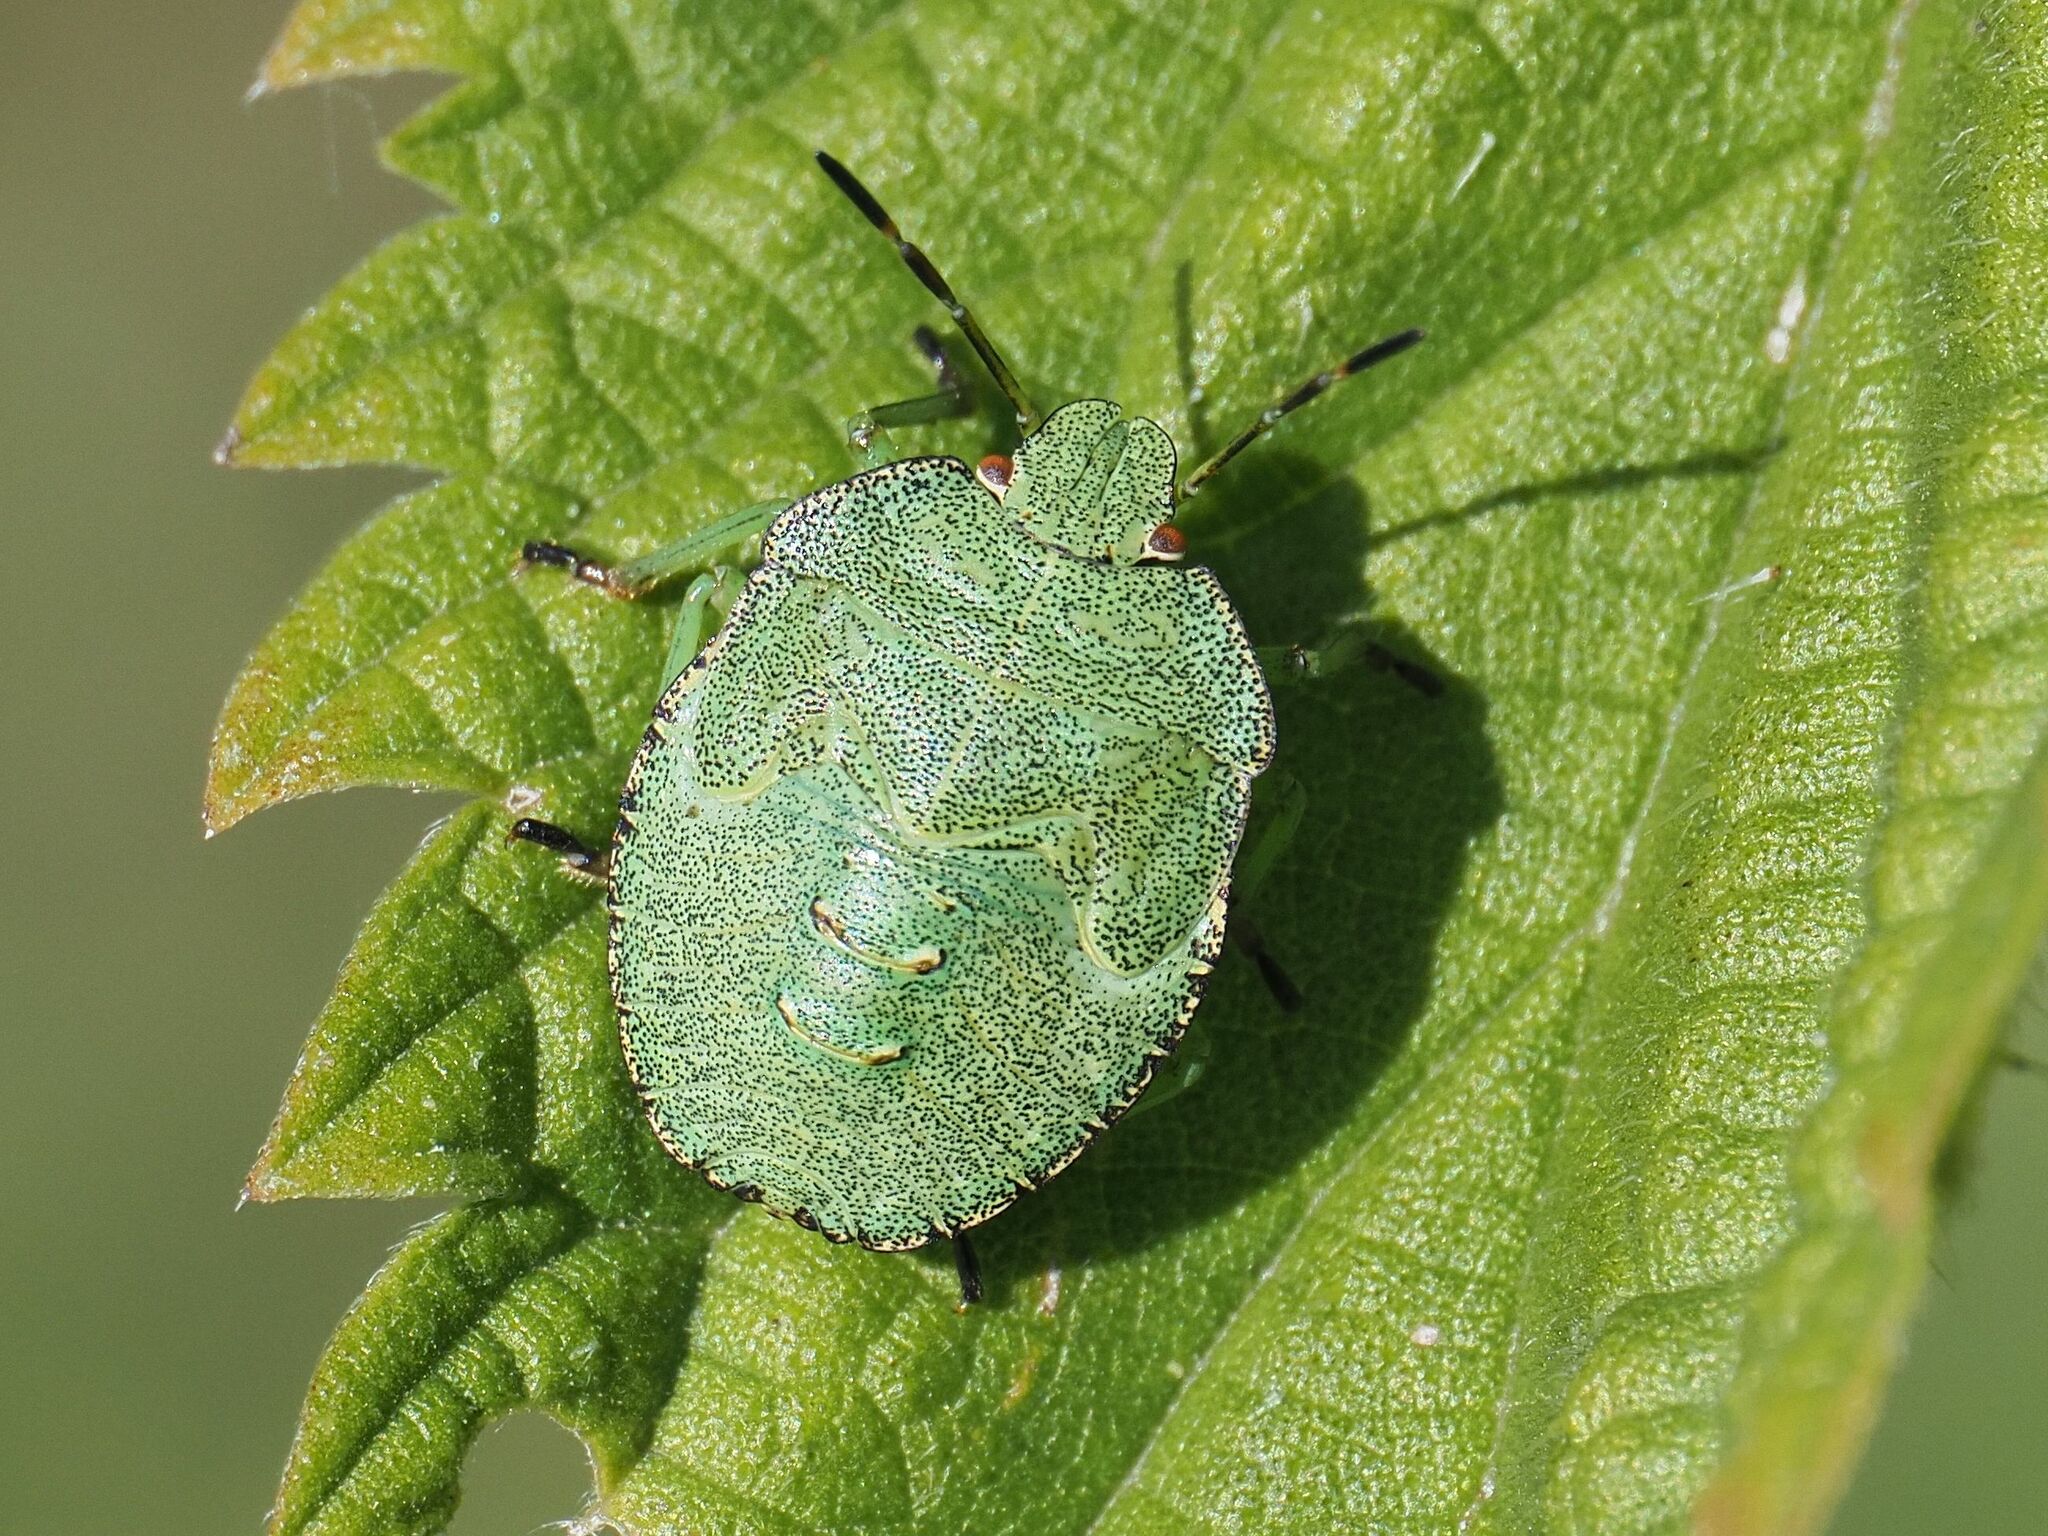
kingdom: Animalia
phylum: Arthropoda
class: Insecta
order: Hemiptera
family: Pentatomidae
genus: Palomena
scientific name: Palomena prasina
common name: Green shieldbug
